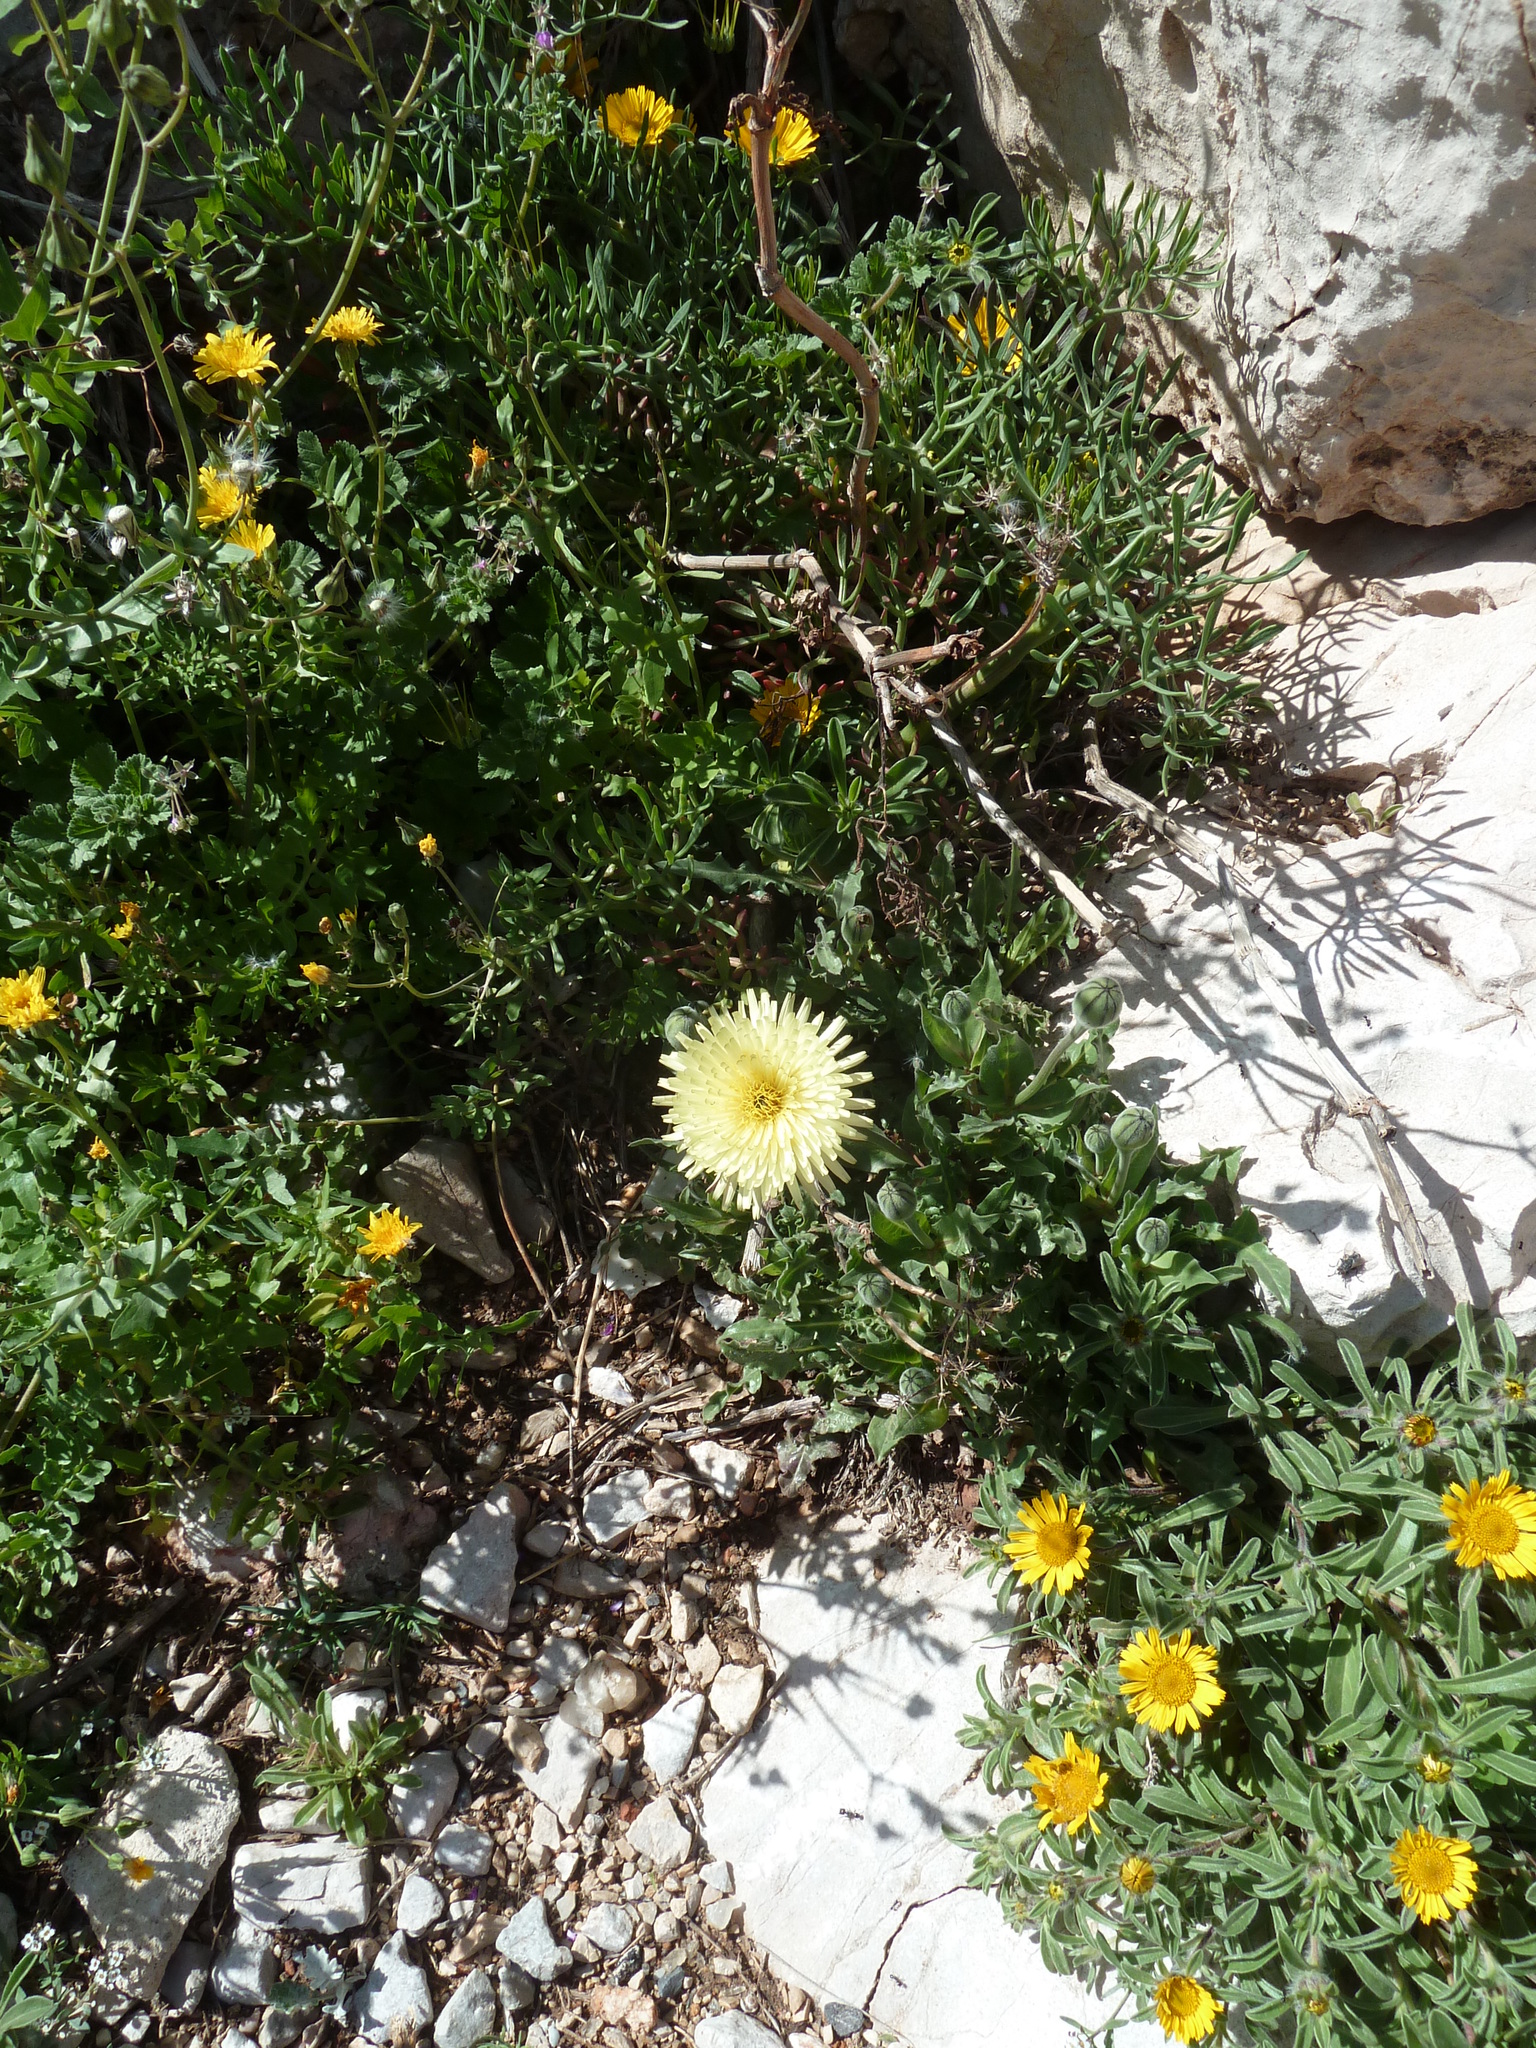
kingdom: Plantae
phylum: Tracheophyta
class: Magnoliopsida
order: Asterales
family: Asteraceae
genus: Urospermum
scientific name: Urospermum dalechampii
